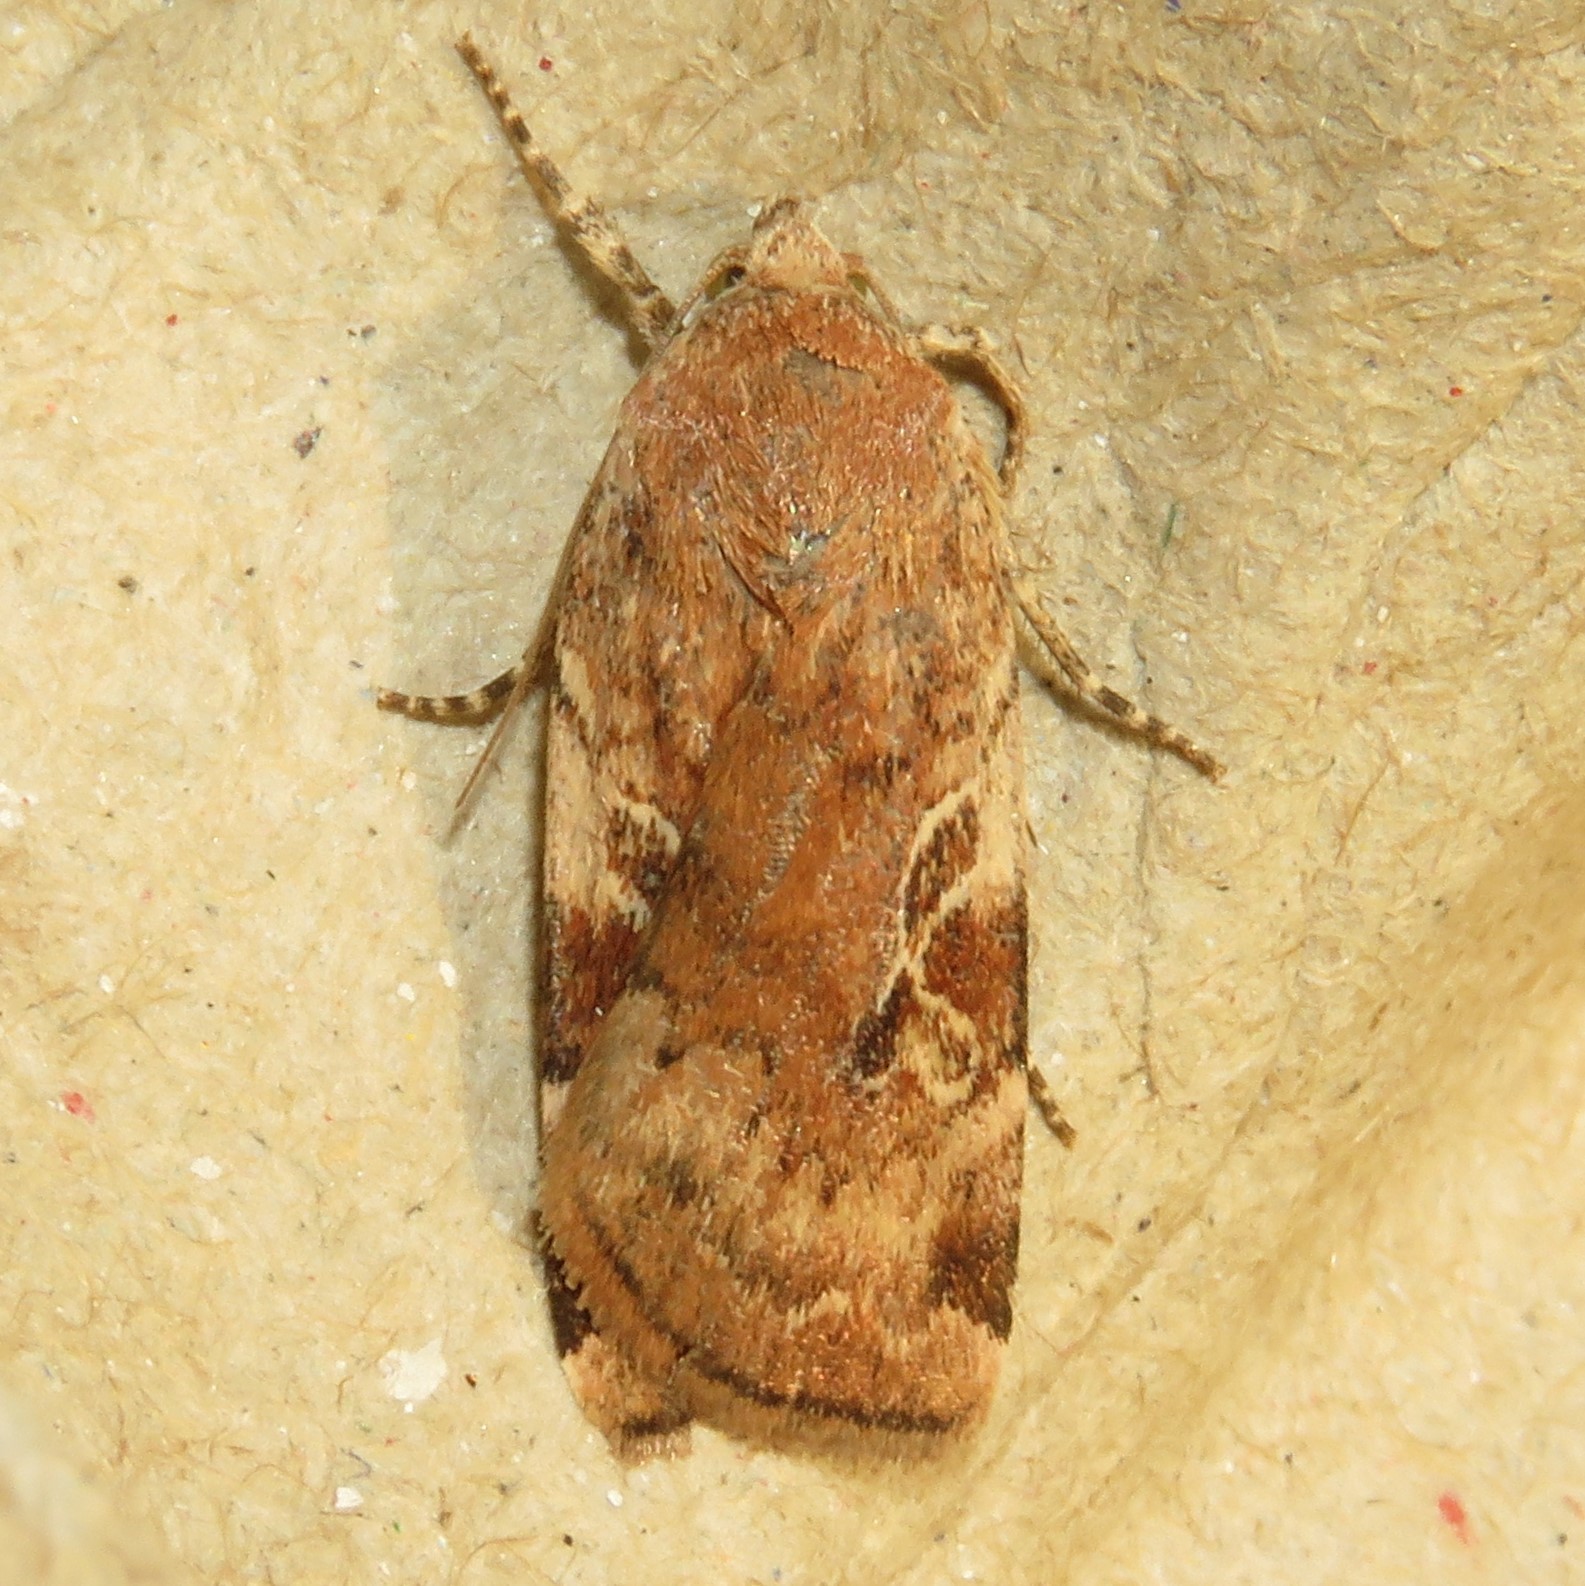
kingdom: Animalia
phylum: Arthropoda
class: Insecta
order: Lepidoptera
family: Noctuidae
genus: Cryptocala
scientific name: Cryptocala acadiensis
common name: Catocaline dart
